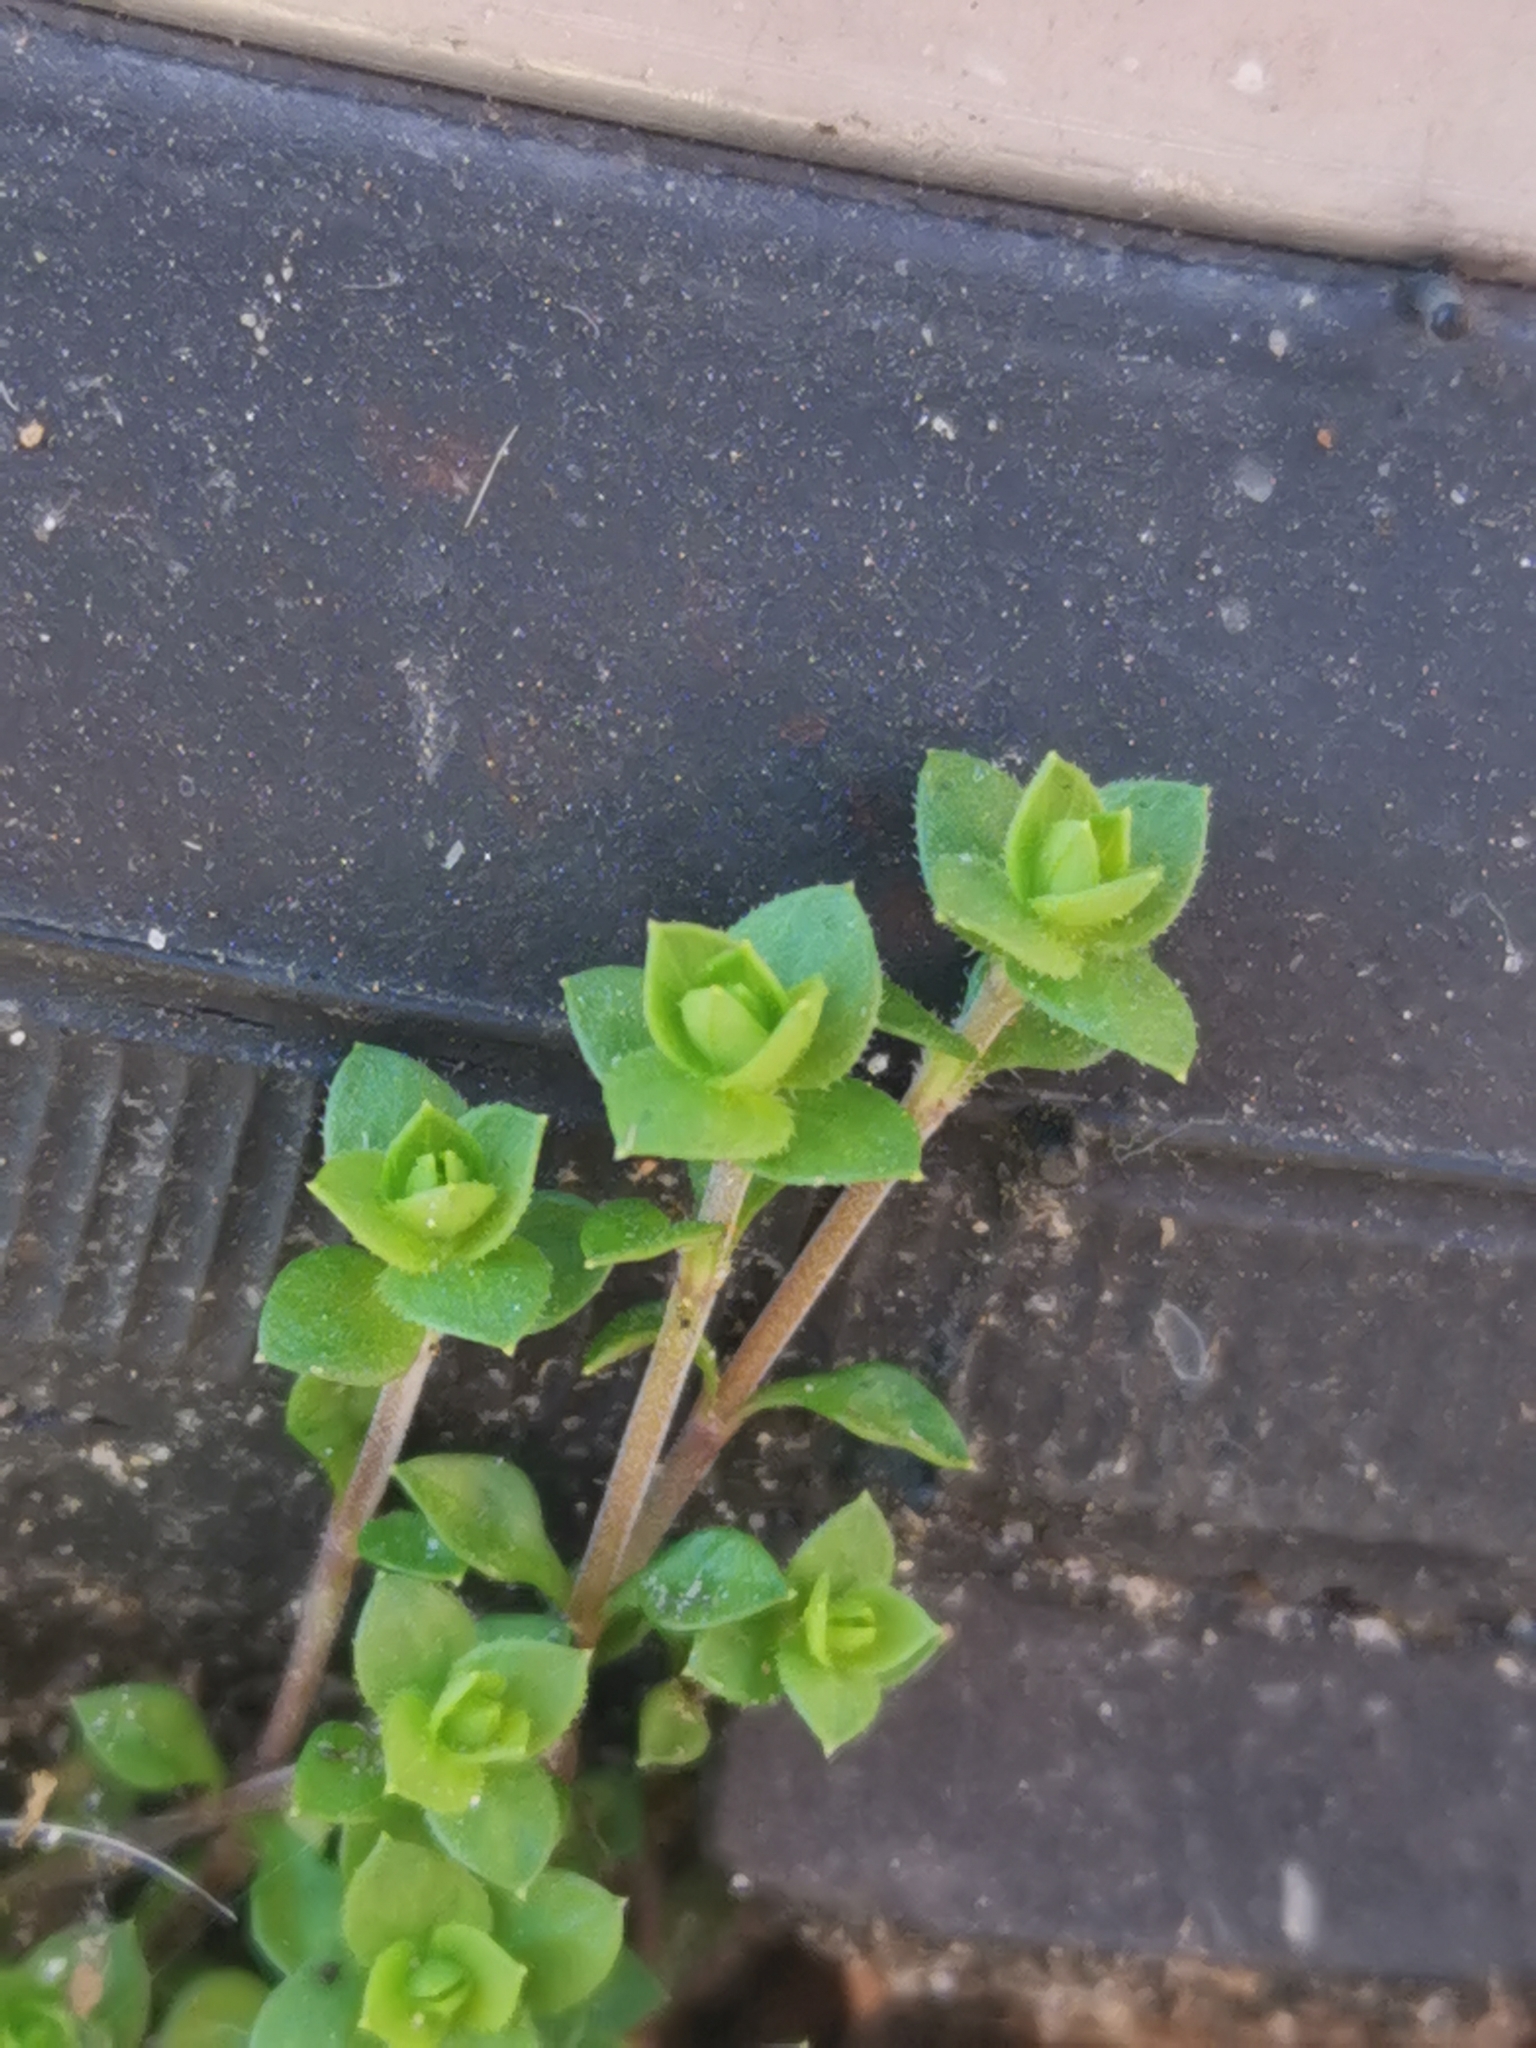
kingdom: Plantae
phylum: Tracheophyta
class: Magnoliopsida
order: Caryophyllales
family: Caryophyllaceae
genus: Arenaria
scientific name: Arenaria serpyllifolia
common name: Thyme-leaved sandwort
